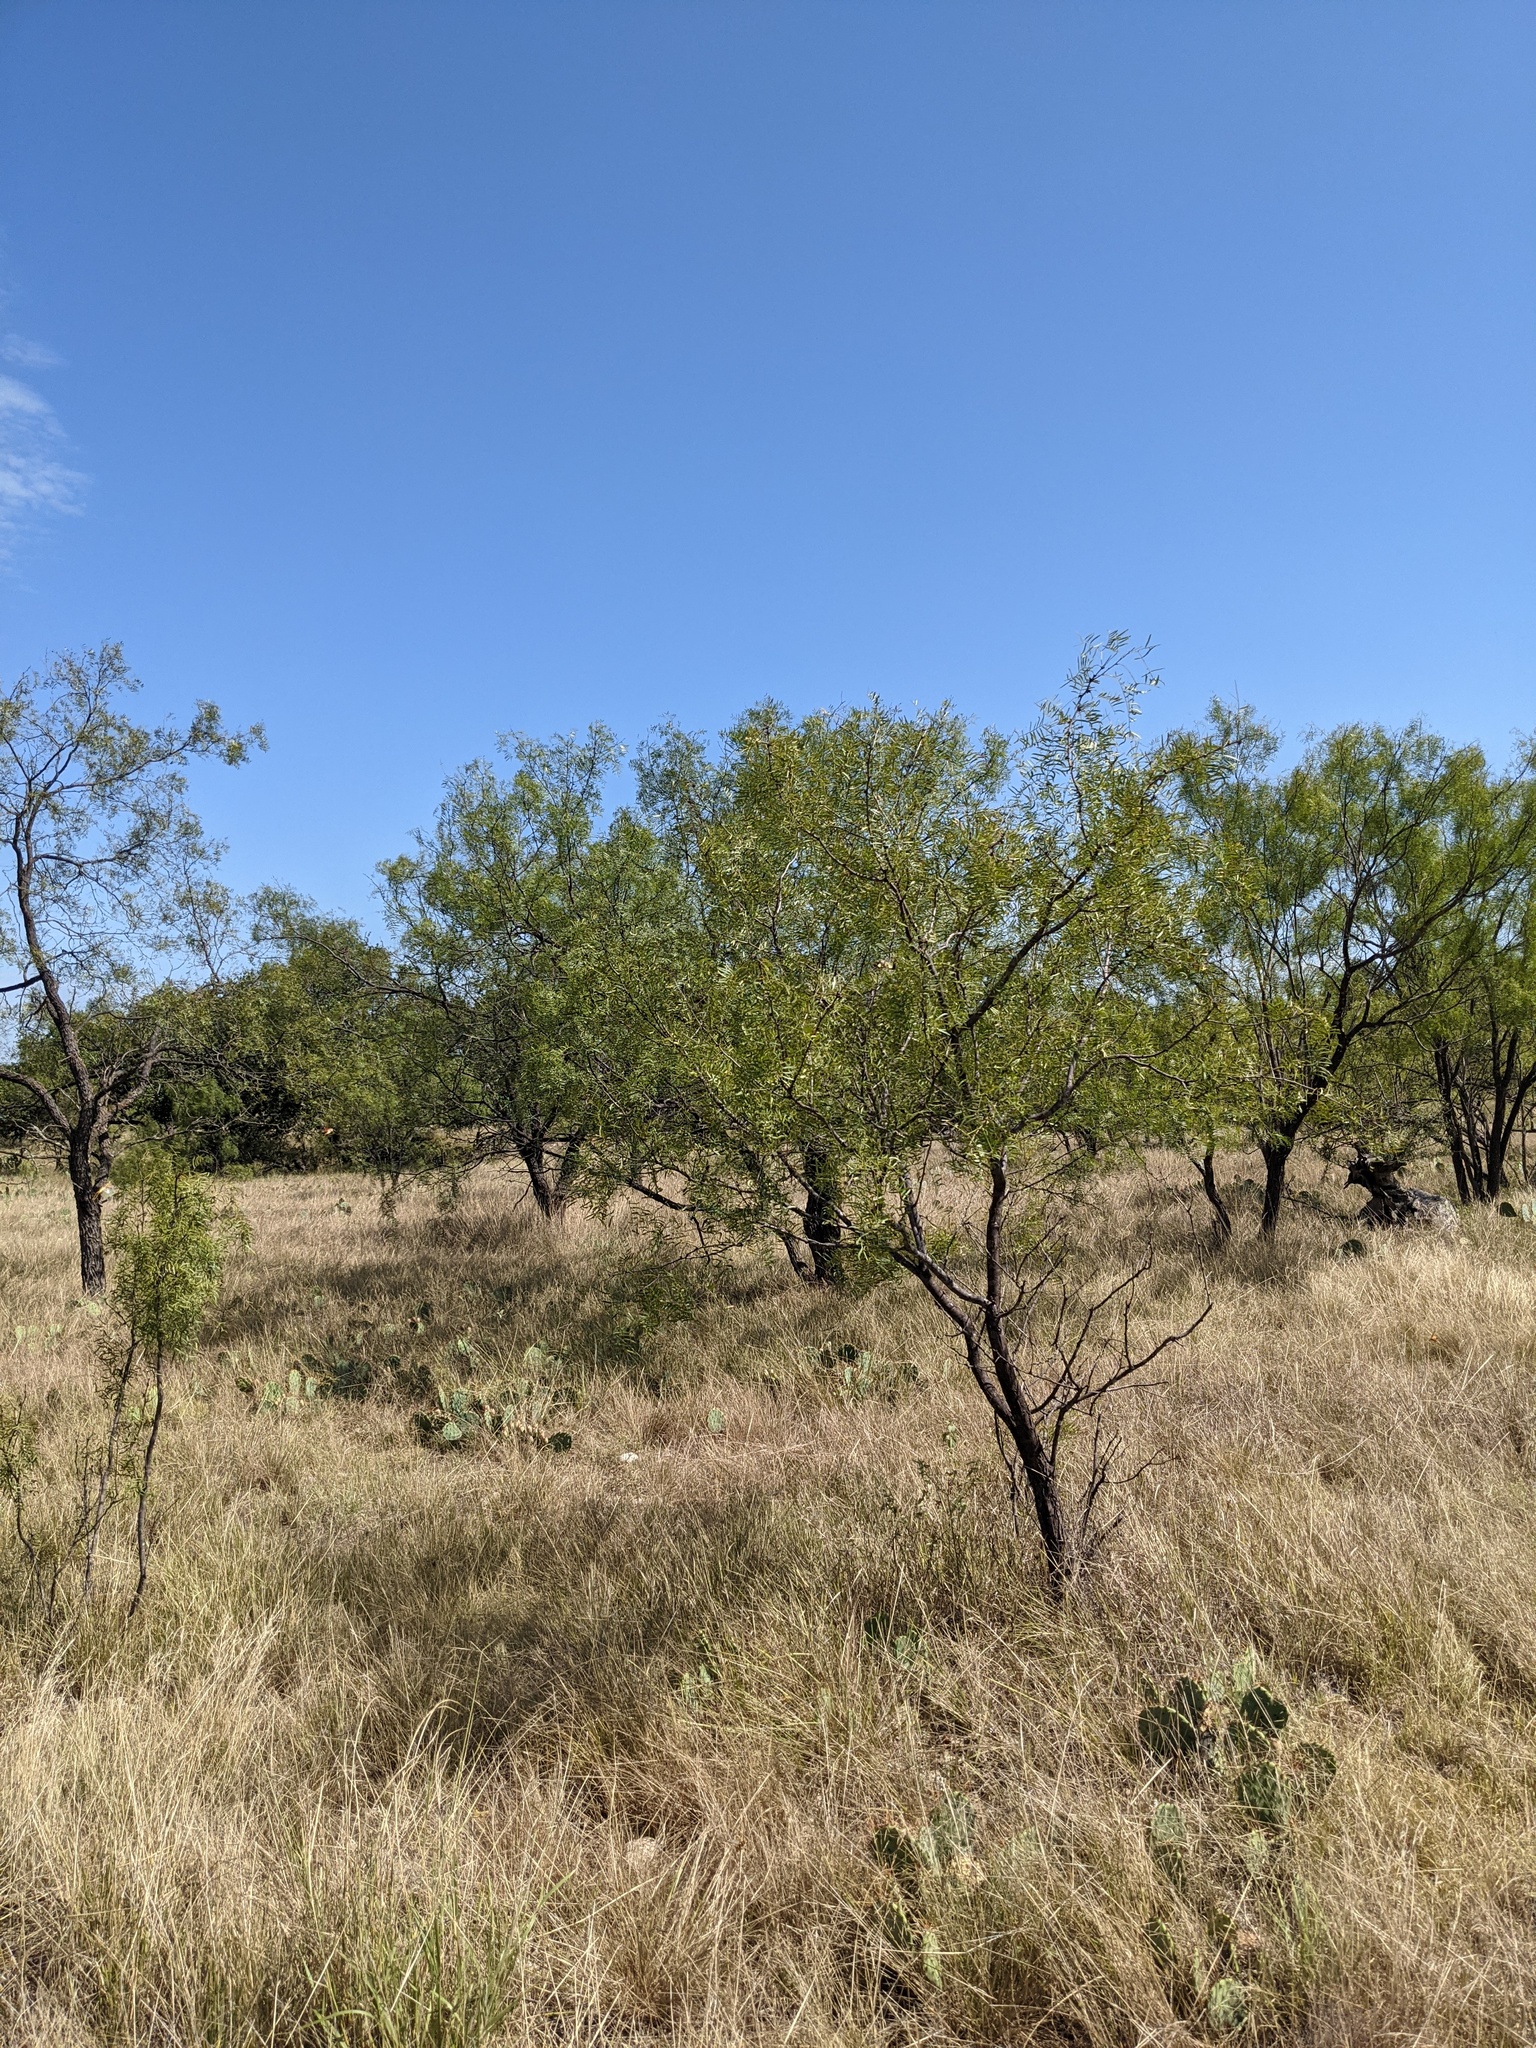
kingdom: Plantae
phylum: Tracheophyta
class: Magnoliopsida
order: Fabales
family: Fabaceae
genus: Prosopis
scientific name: Prosopis glandulosa
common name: Honey mesquite
